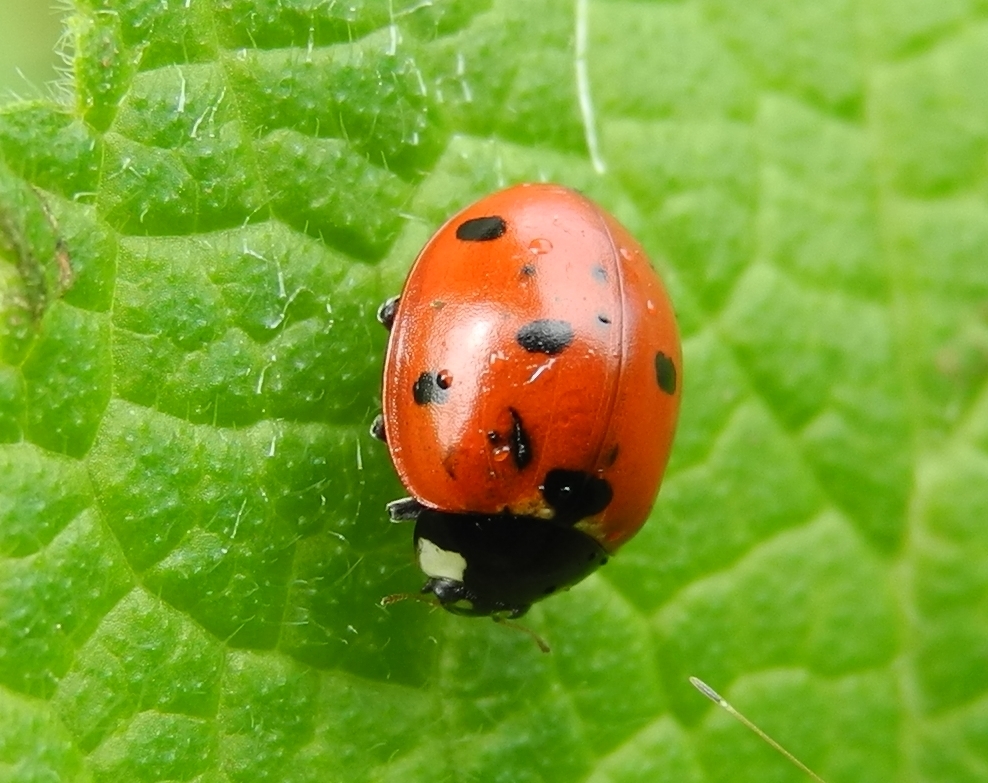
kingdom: Animalia
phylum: Arthropoda
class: Insecta
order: Coleoptera
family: Coccinellidae
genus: Coccinella
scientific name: Coccinella septempunctata
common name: Sevenspotted lady beetle
